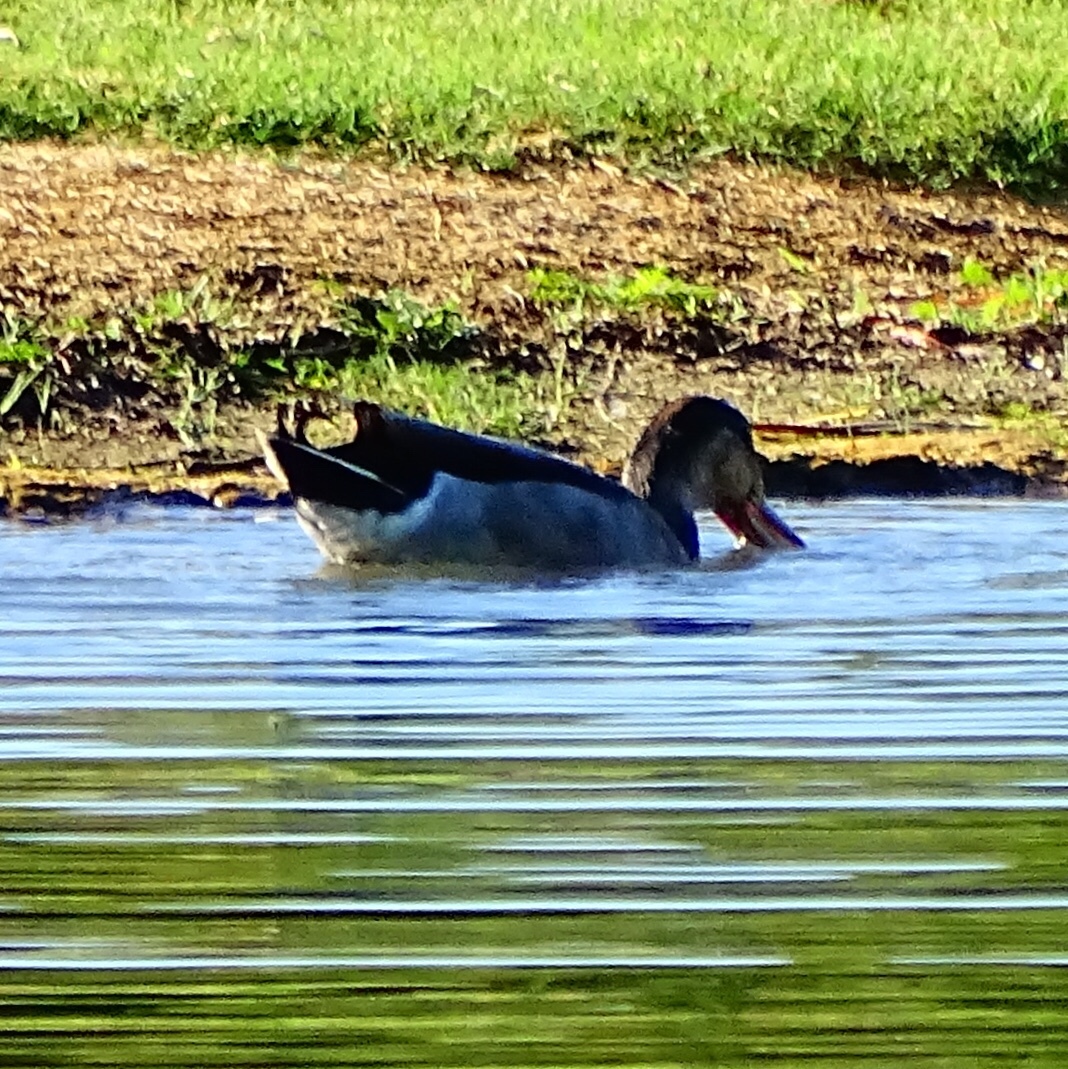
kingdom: Animalia
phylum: Chordata
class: Aves
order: Anseriformes
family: Anatidae
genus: Anas
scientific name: Anas platyrhynchos
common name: Mallard
